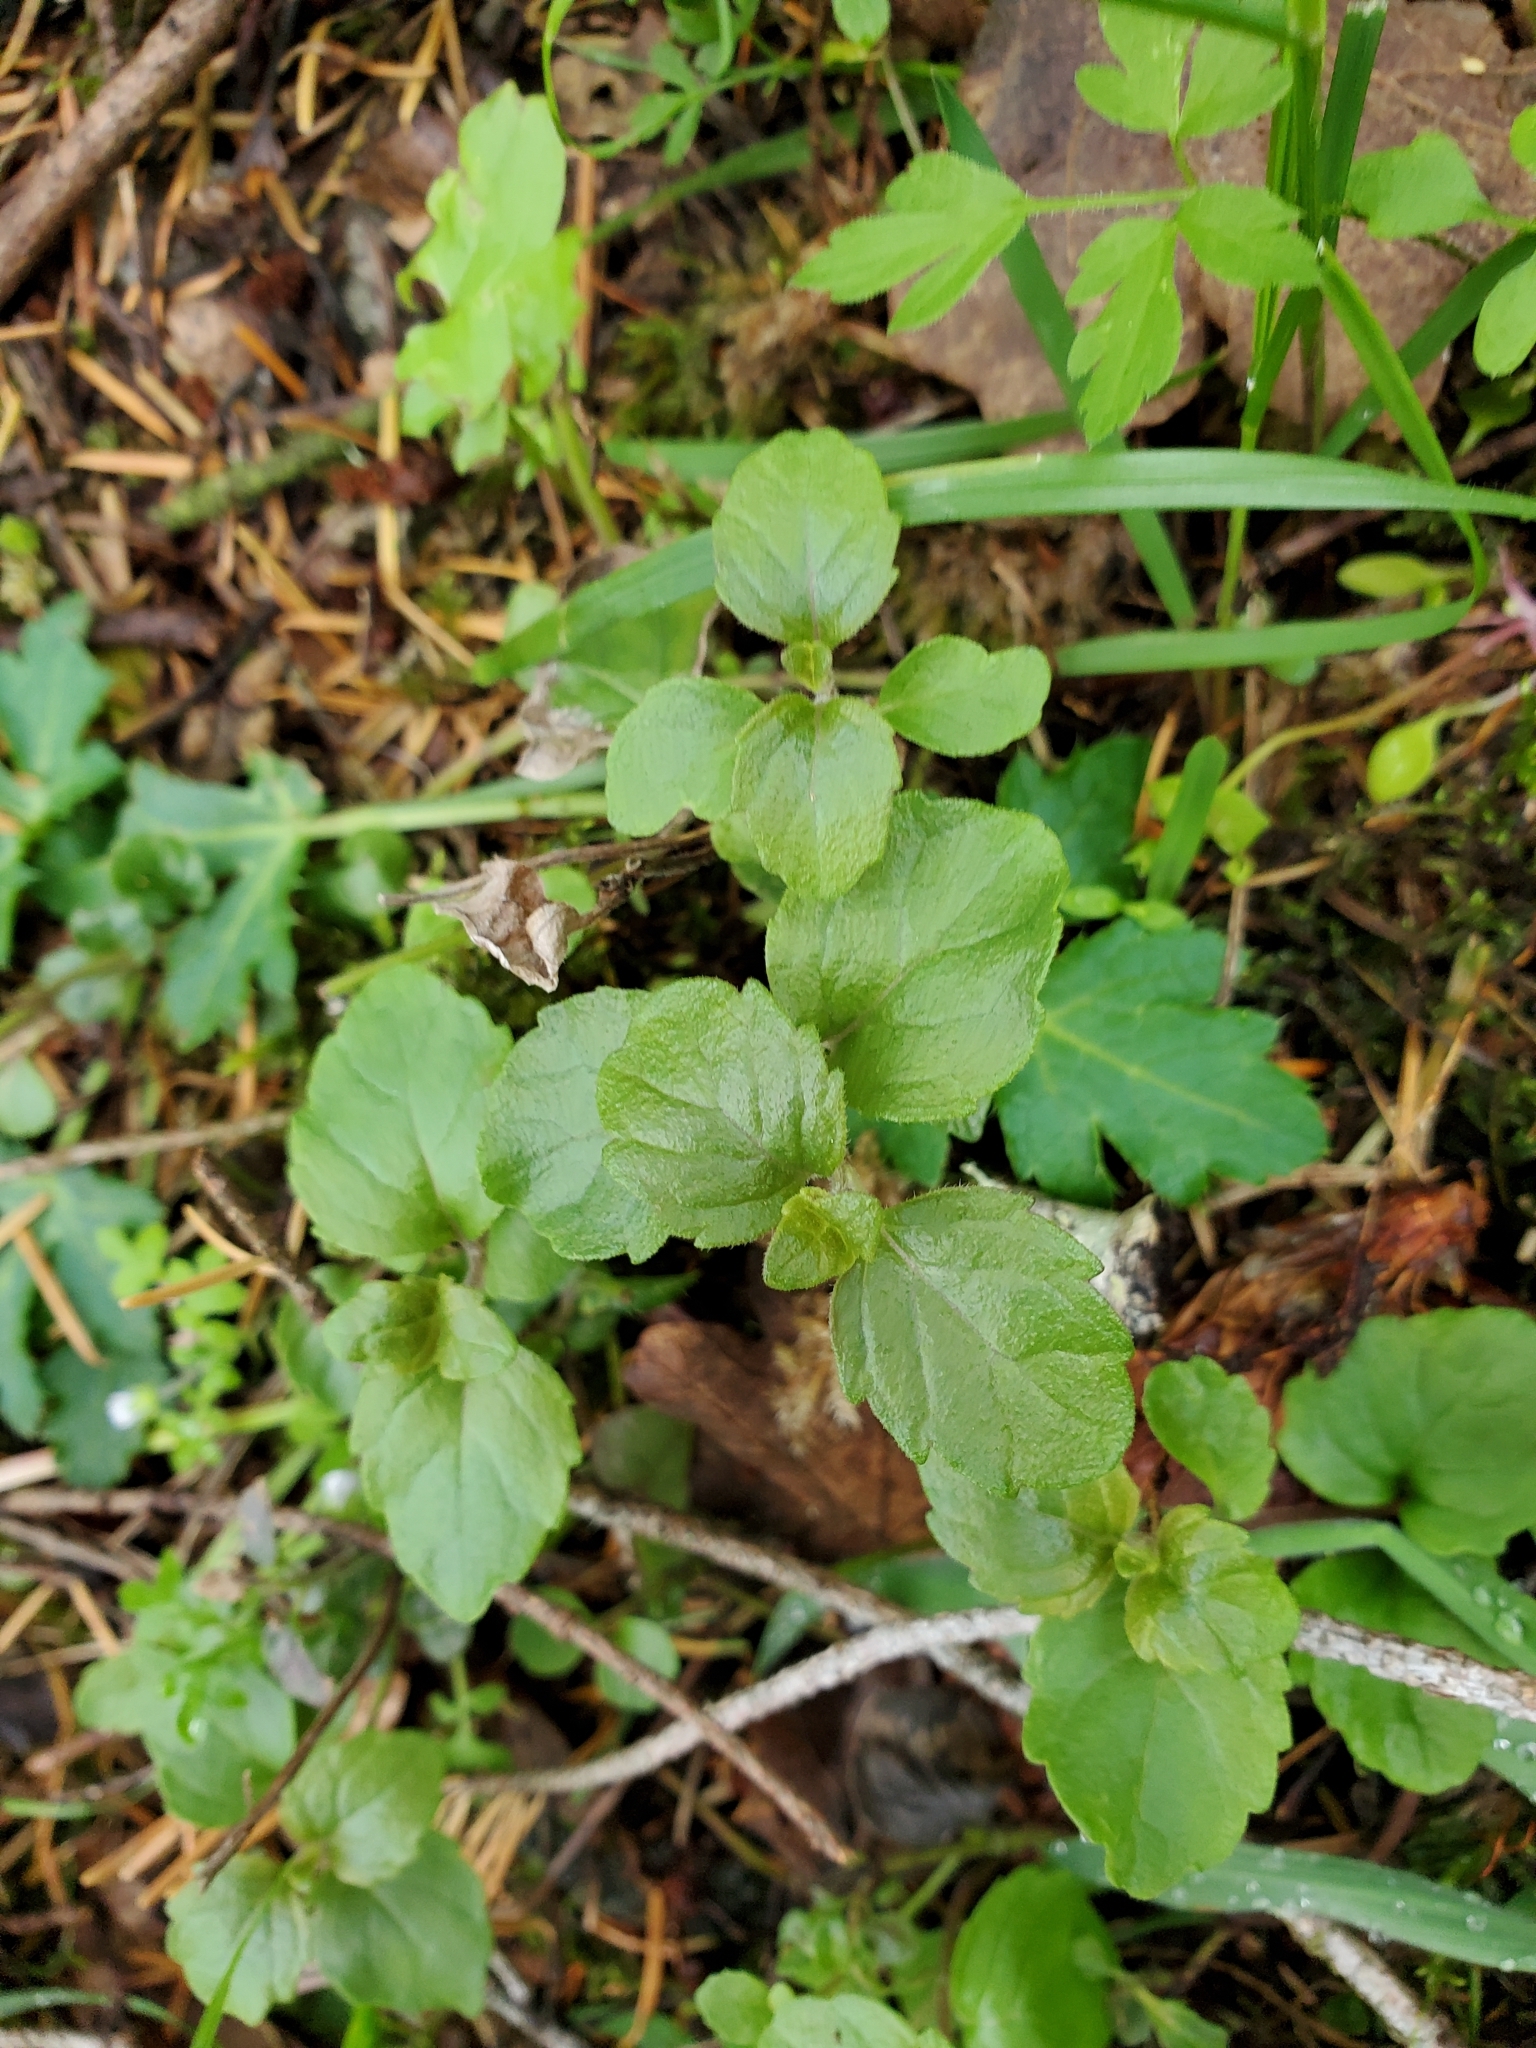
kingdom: Plantae
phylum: Tracheophyta
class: Magnoliopsida
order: Lamiales
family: Lamiaceae
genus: Micromeria
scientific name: Micromeria douglasii
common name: Yerba buena
